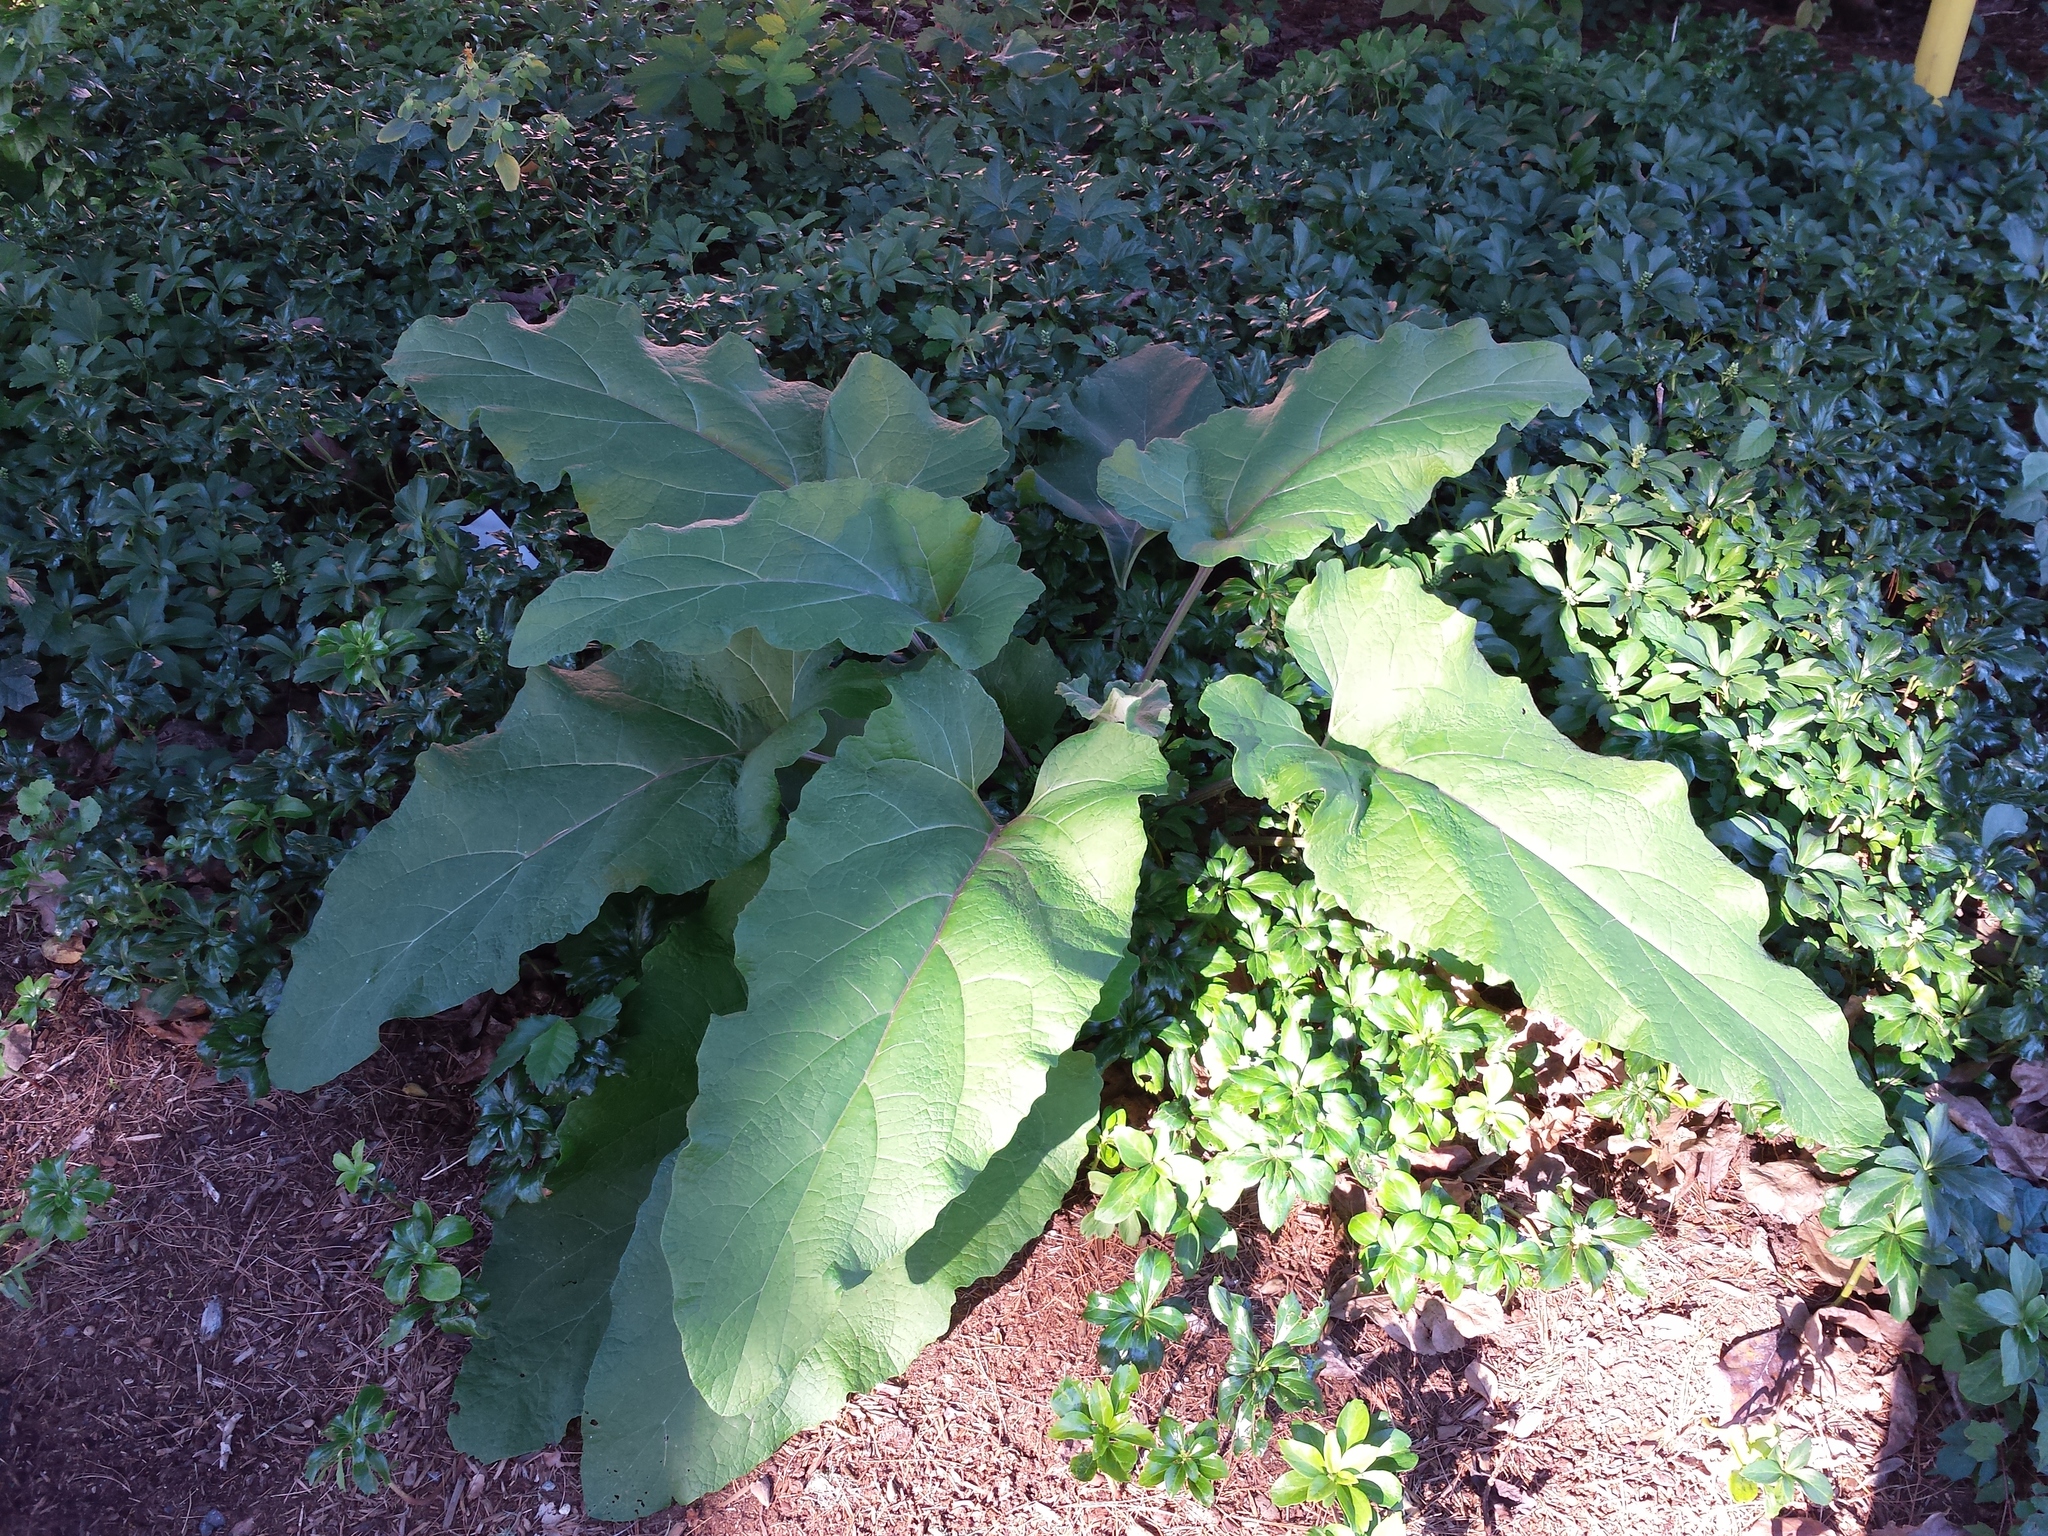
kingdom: Plantae
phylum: Tracheophyta
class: Magnoliopsida
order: Asterales
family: Asteraceae
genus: Arctium
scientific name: Arctium
